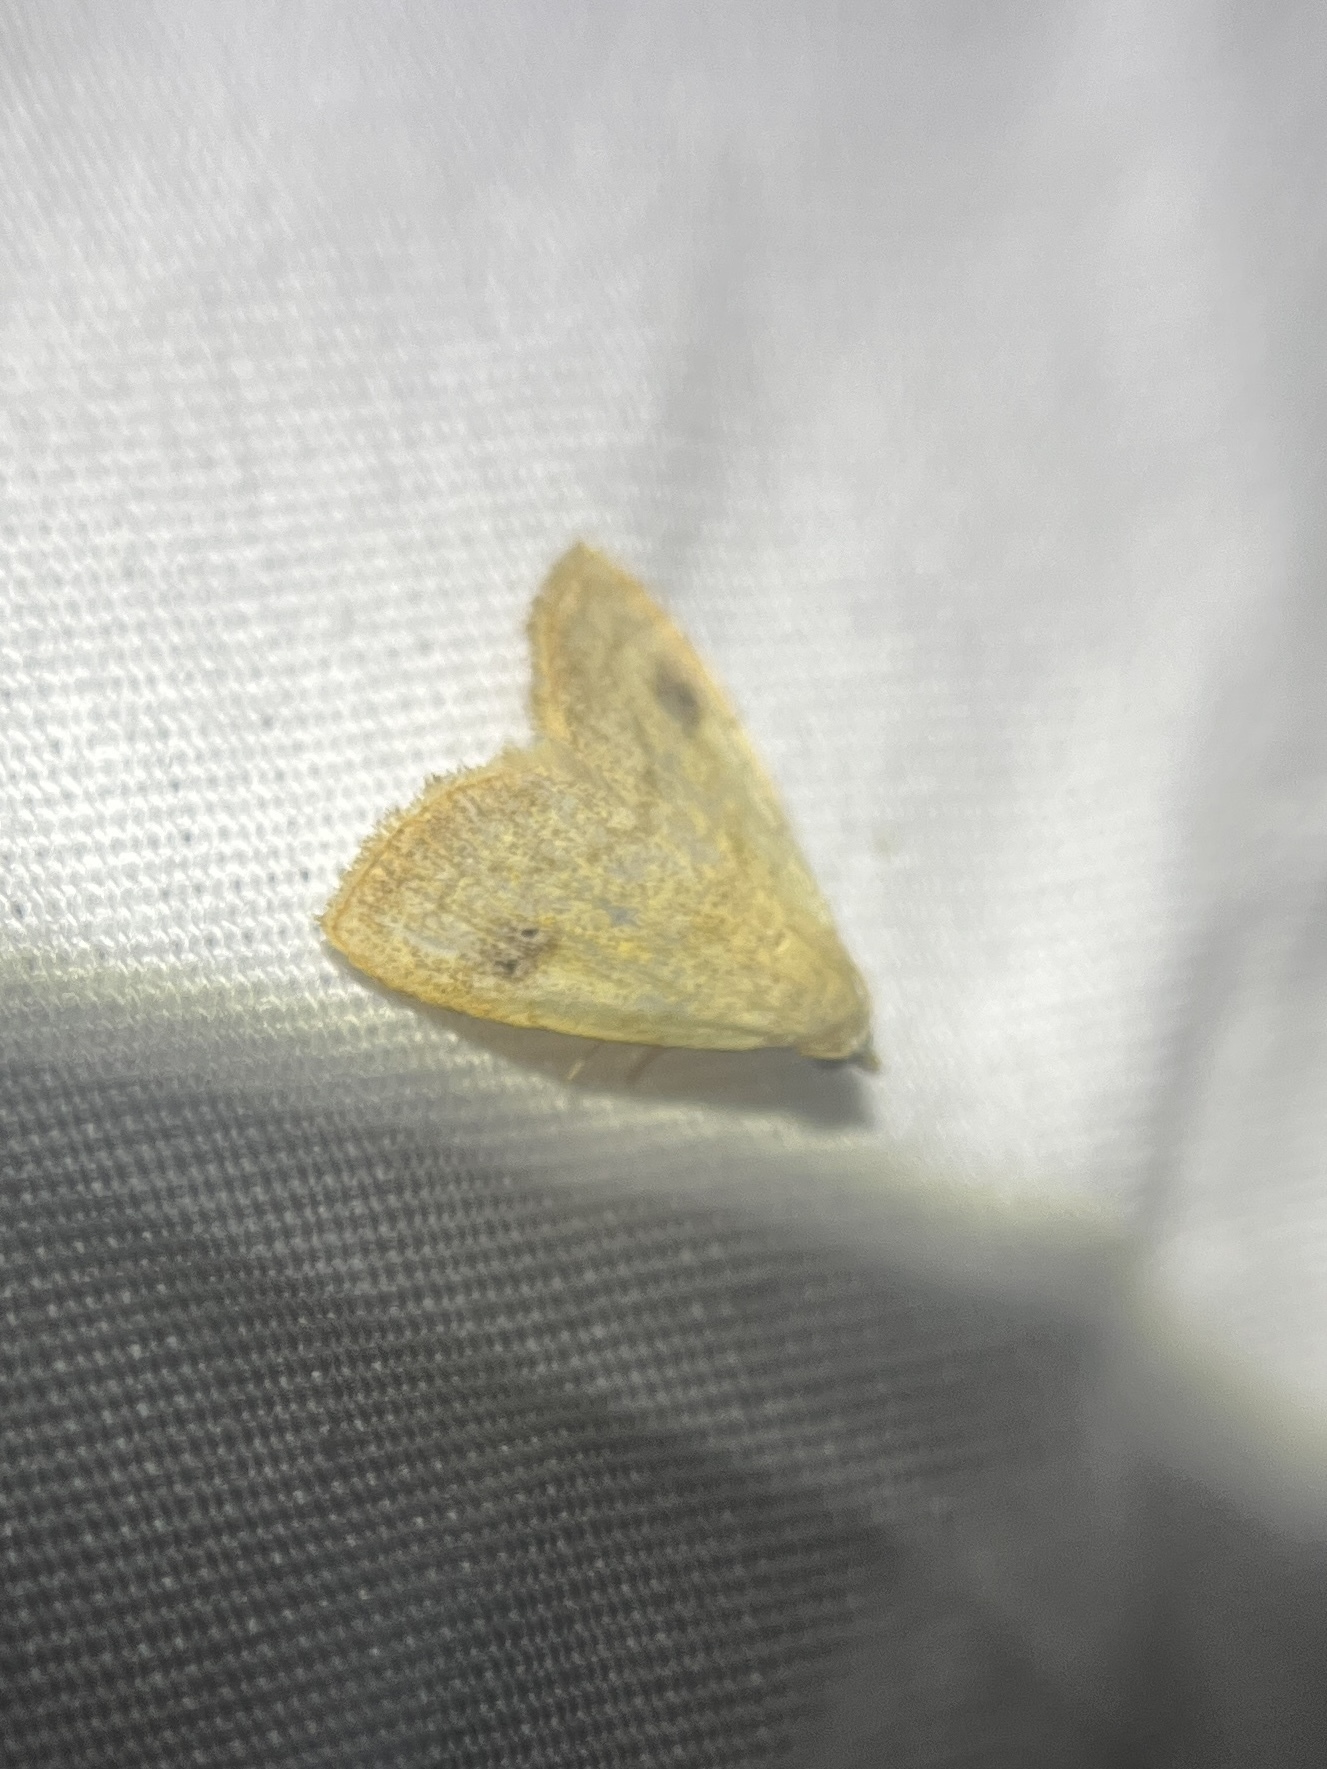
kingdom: Animalia
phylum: Arthropoda
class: Insecta
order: Lepidoptera
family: Erebidae
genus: Rivula
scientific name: Rivula propinqualis
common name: Spotted grass moth
